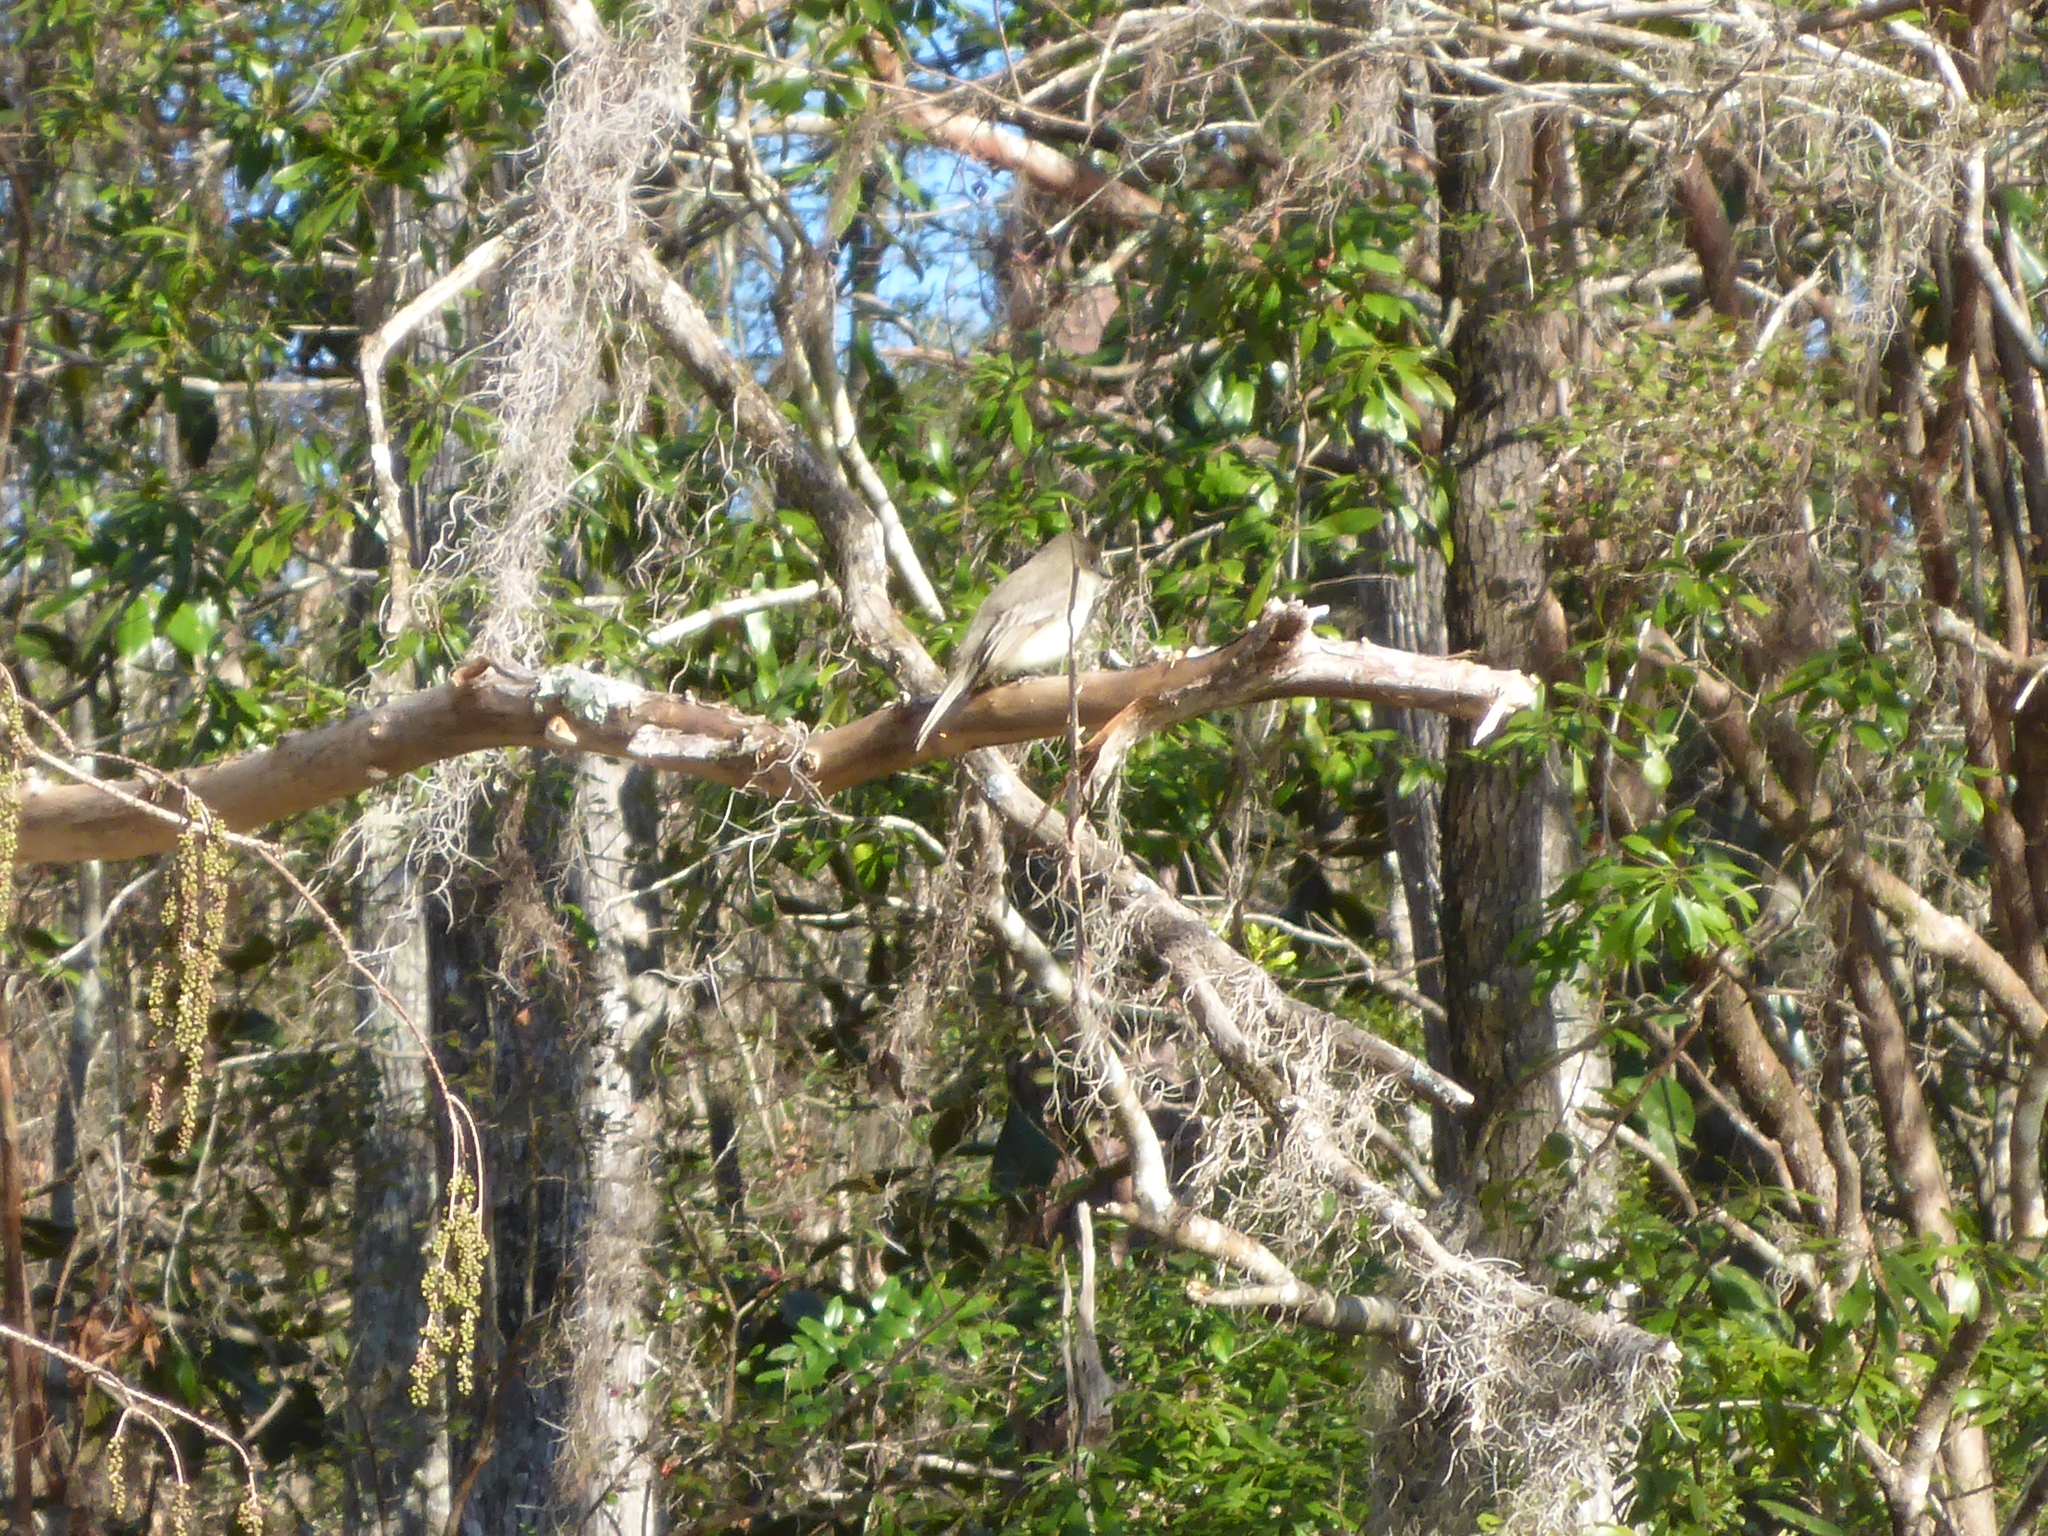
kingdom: Animalia
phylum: Chordata
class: Aves
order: Passeriformes
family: Tyrannidae
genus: Sayornis
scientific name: Sayornis phoebe
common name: Eastern phoebe
